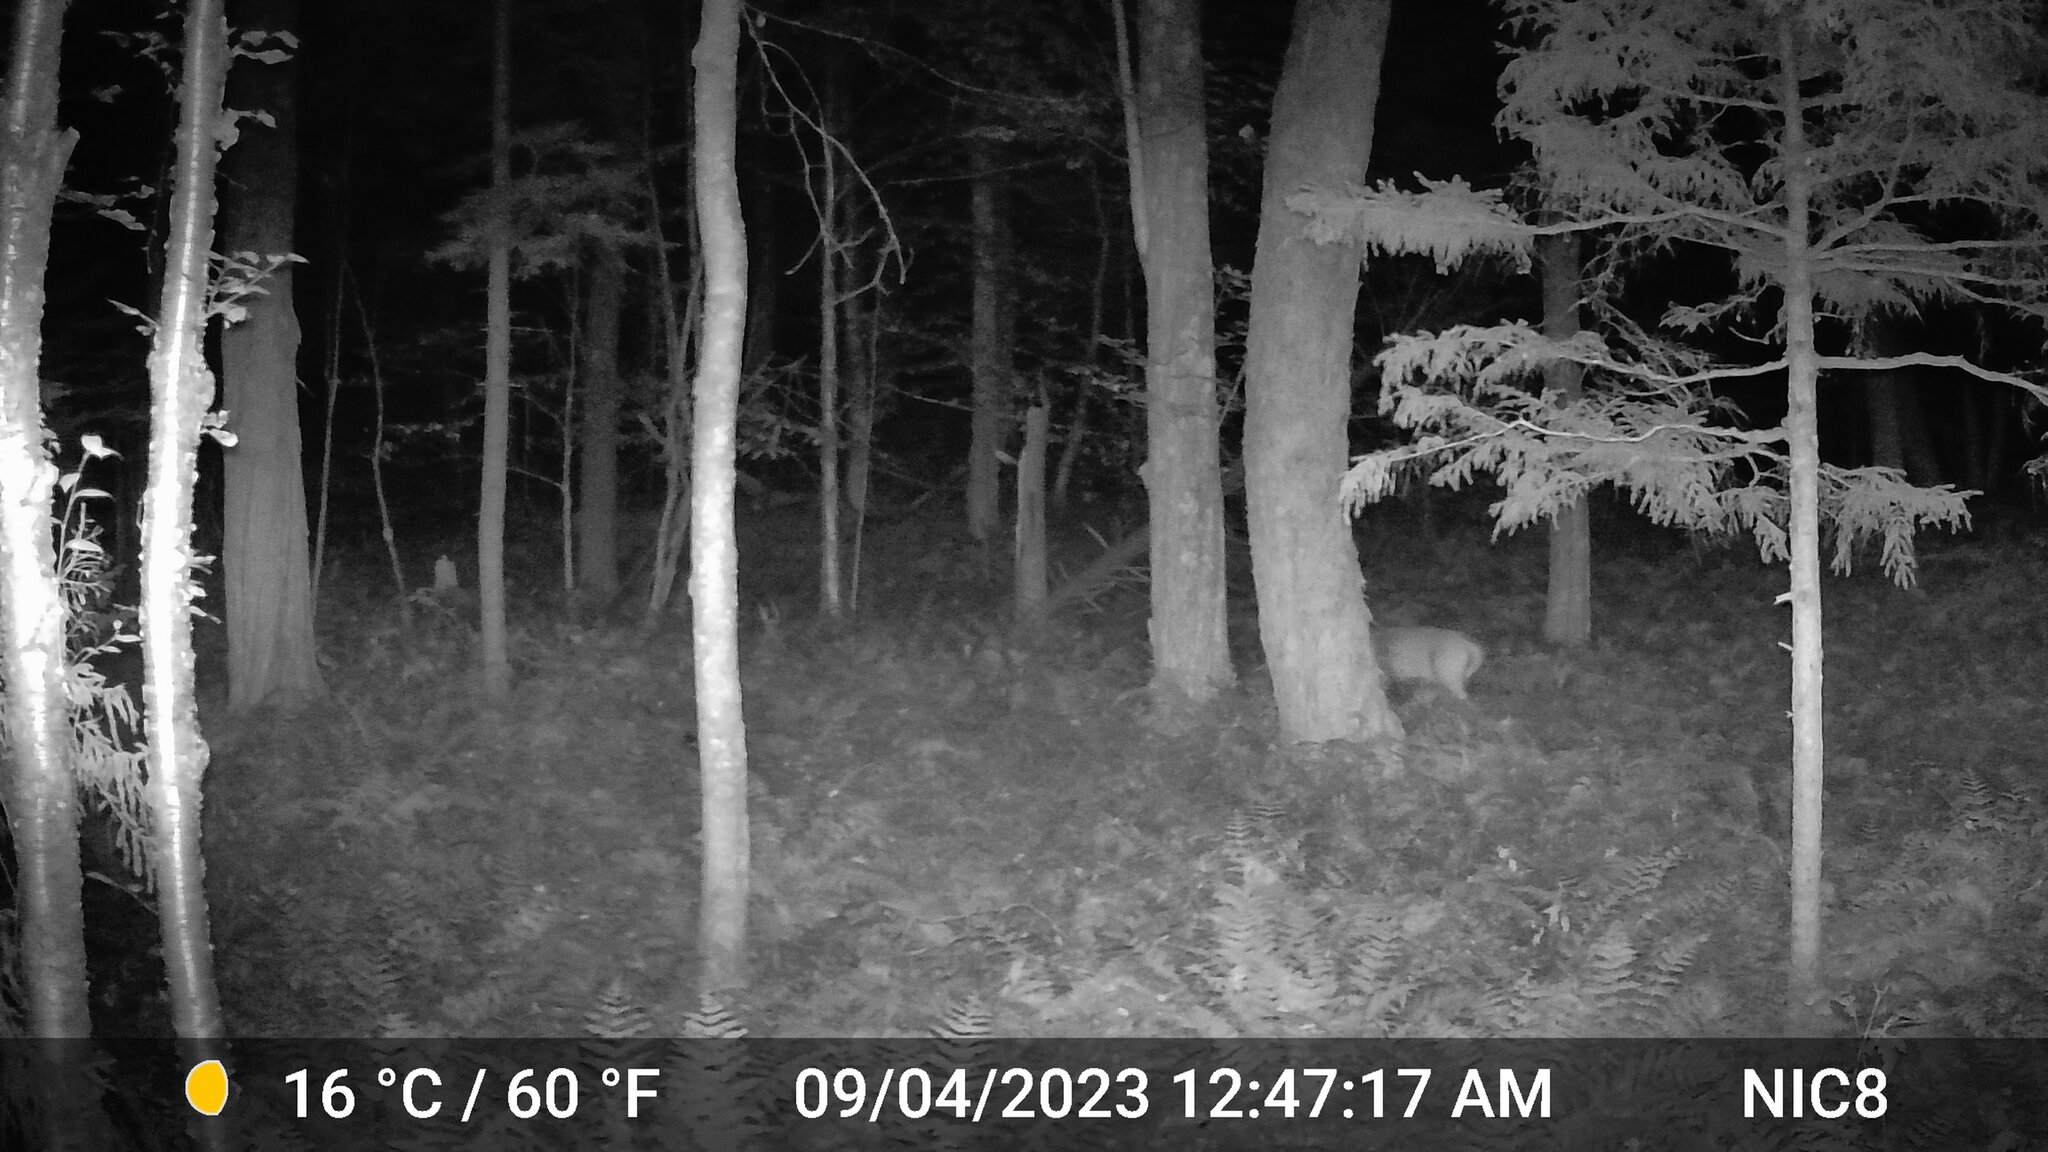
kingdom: Animalia
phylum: Chordata
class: Mammalia
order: Artiodactyla
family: Cervidae
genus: Odocoileus
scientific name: Odocoileus virginianus
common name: White-tailed deer
